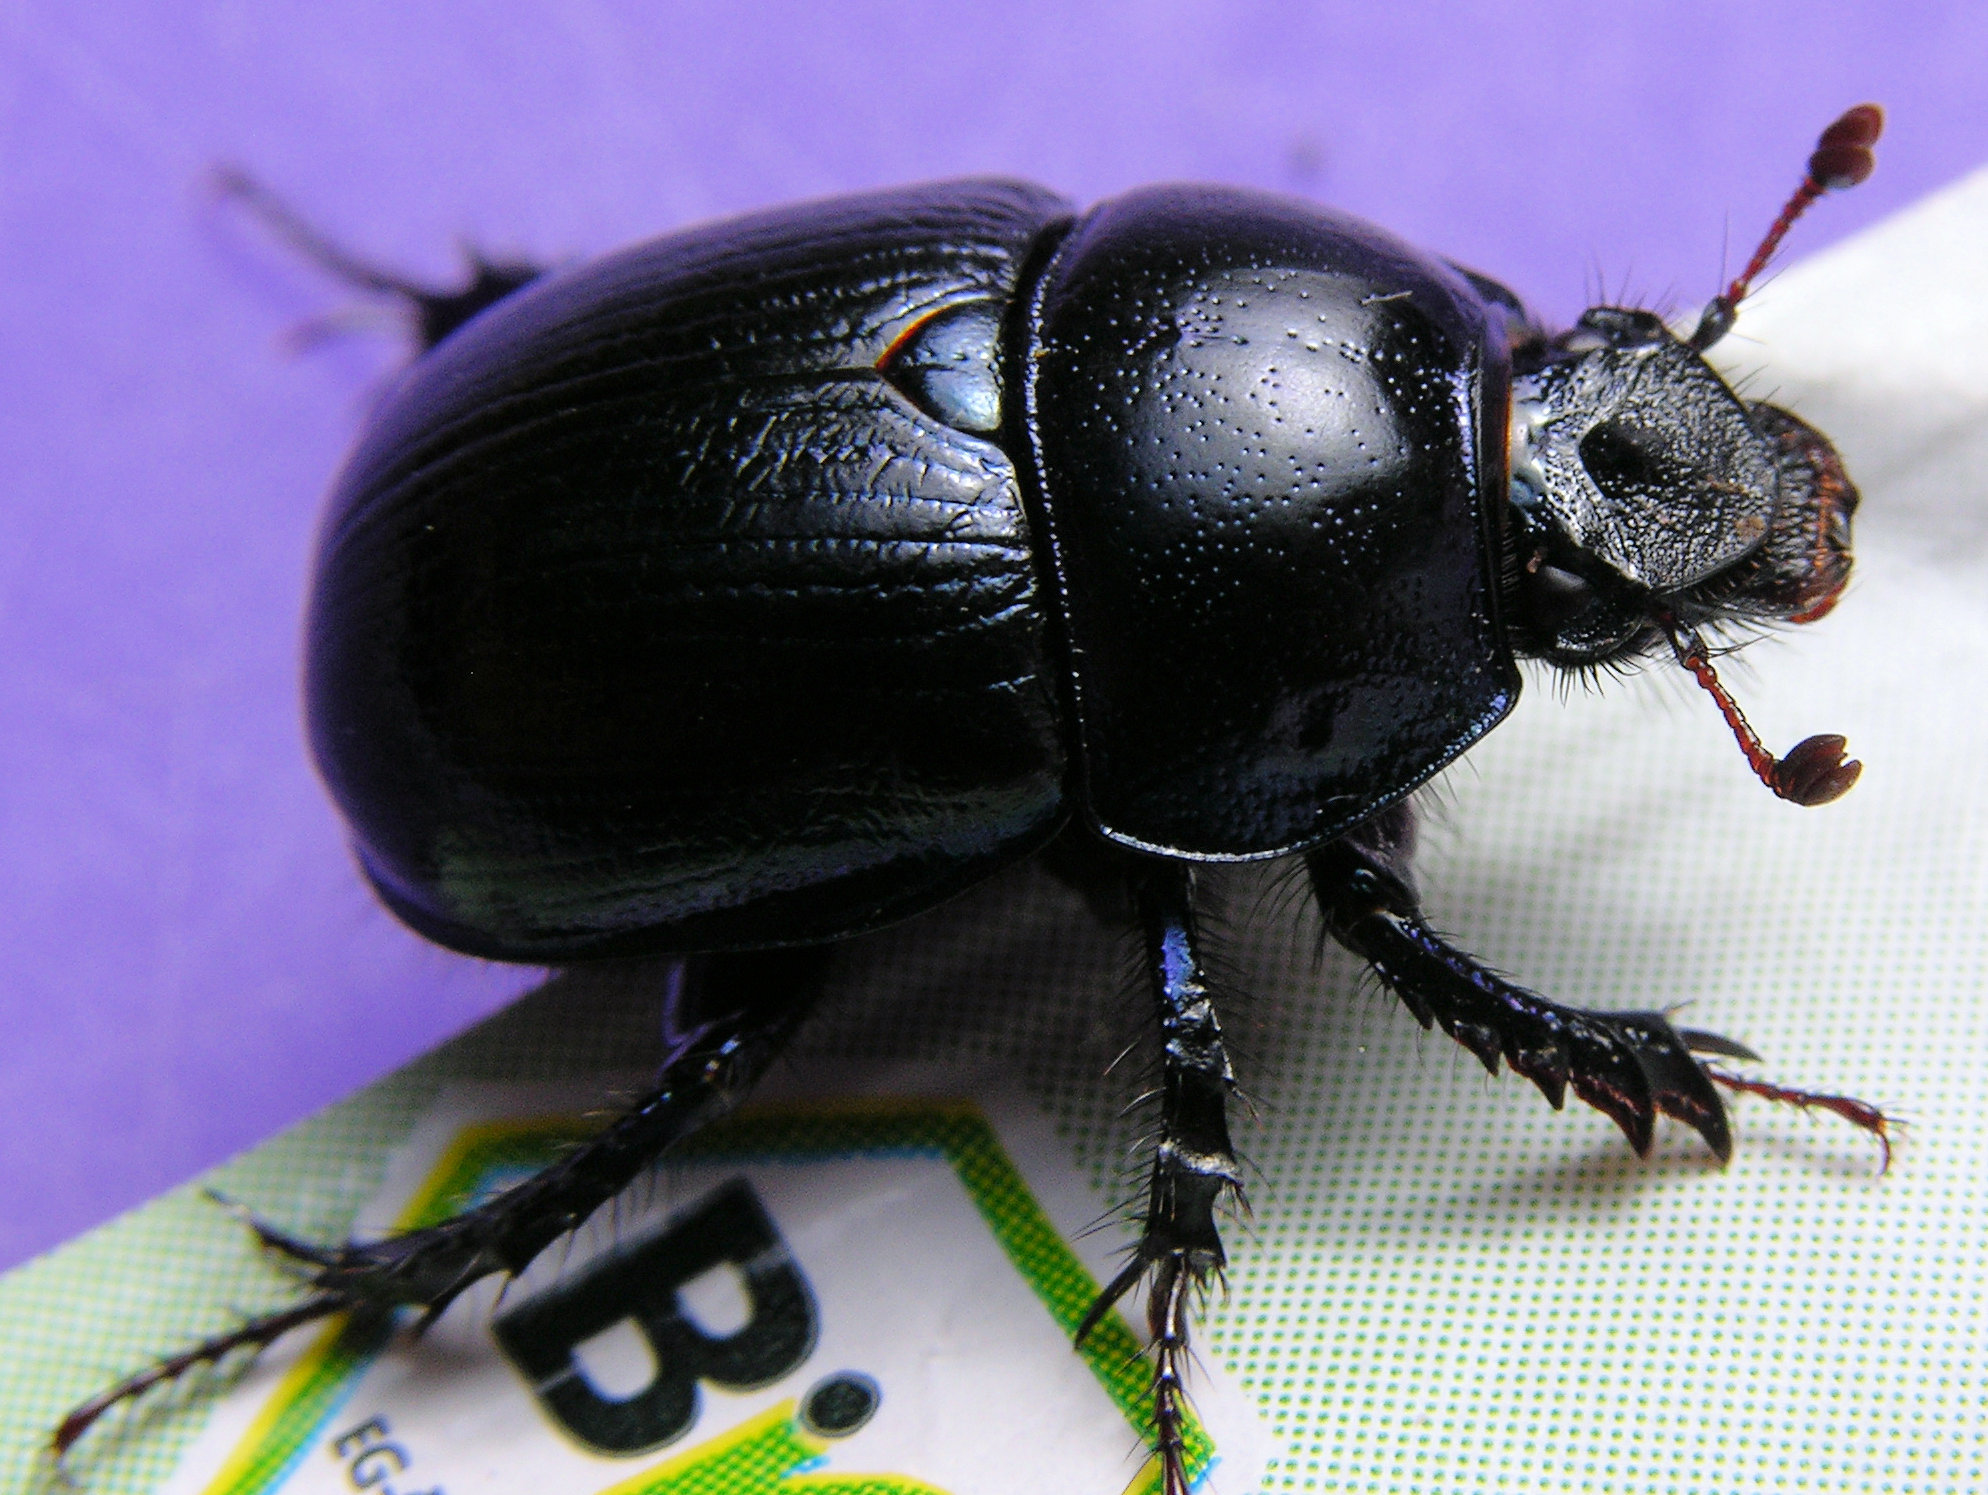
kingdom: Animalia
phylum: Arthropoda
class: Insecta
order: Coleoptera
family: Geotrupidae
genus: Anoplotrupes
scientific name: Anoplotrupes stercorosus
